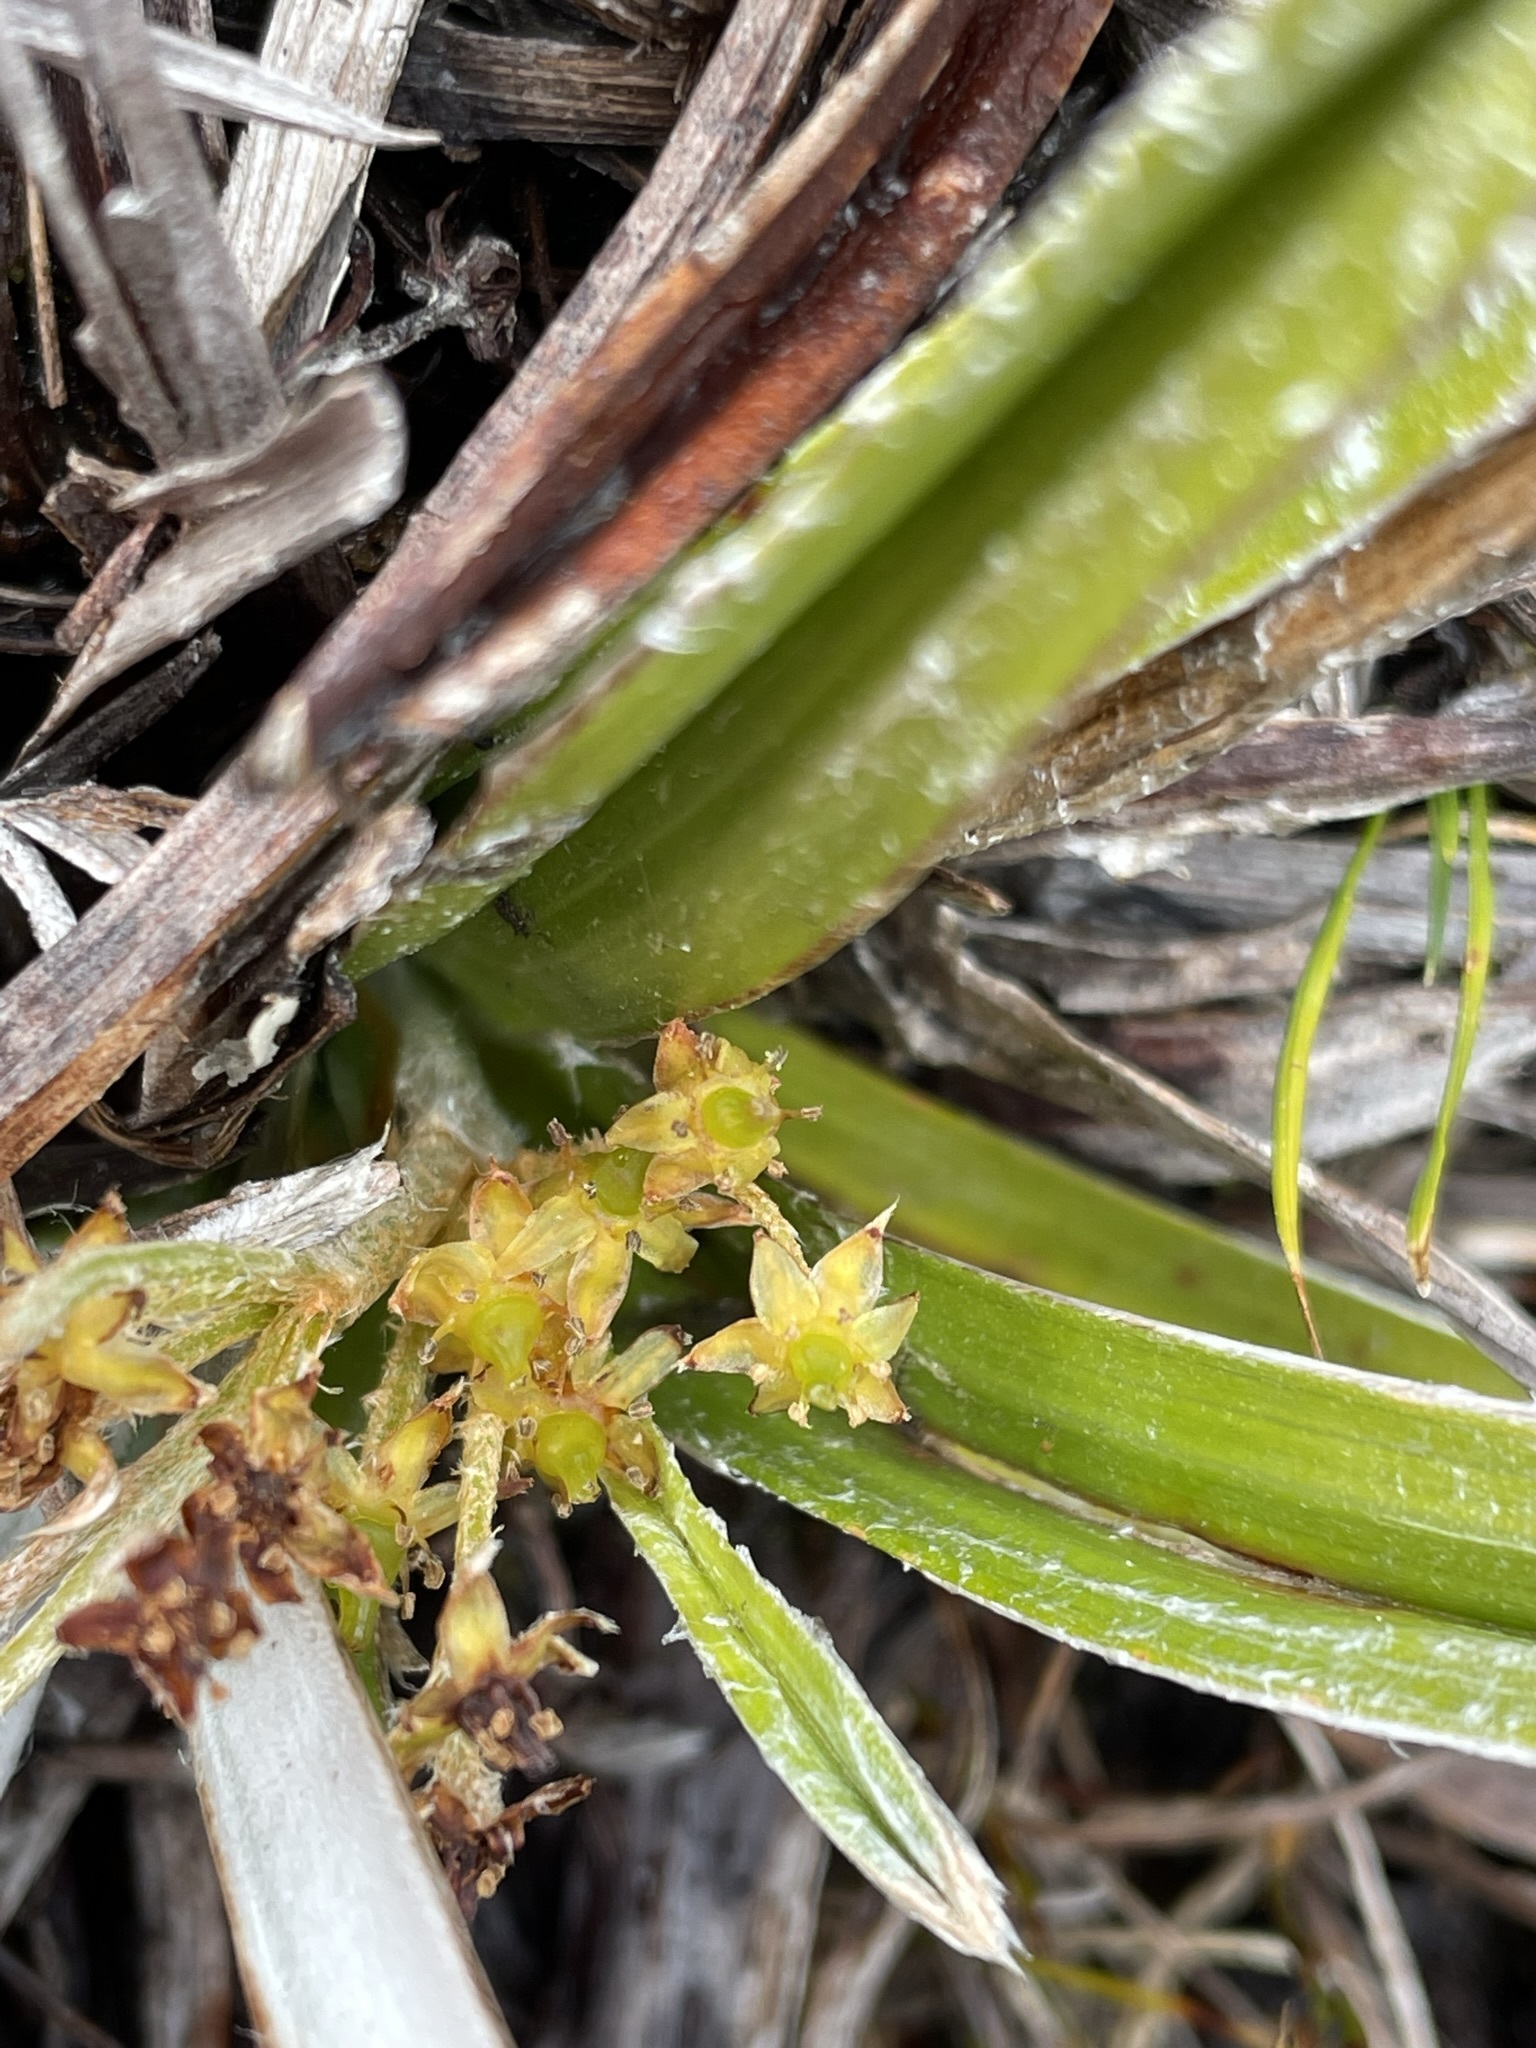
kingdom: Plantae
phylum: Tracheophyta
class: Liliopsida
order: Asparagales
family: Asteliaceae
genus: Astelia
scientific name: Astelia alpina
